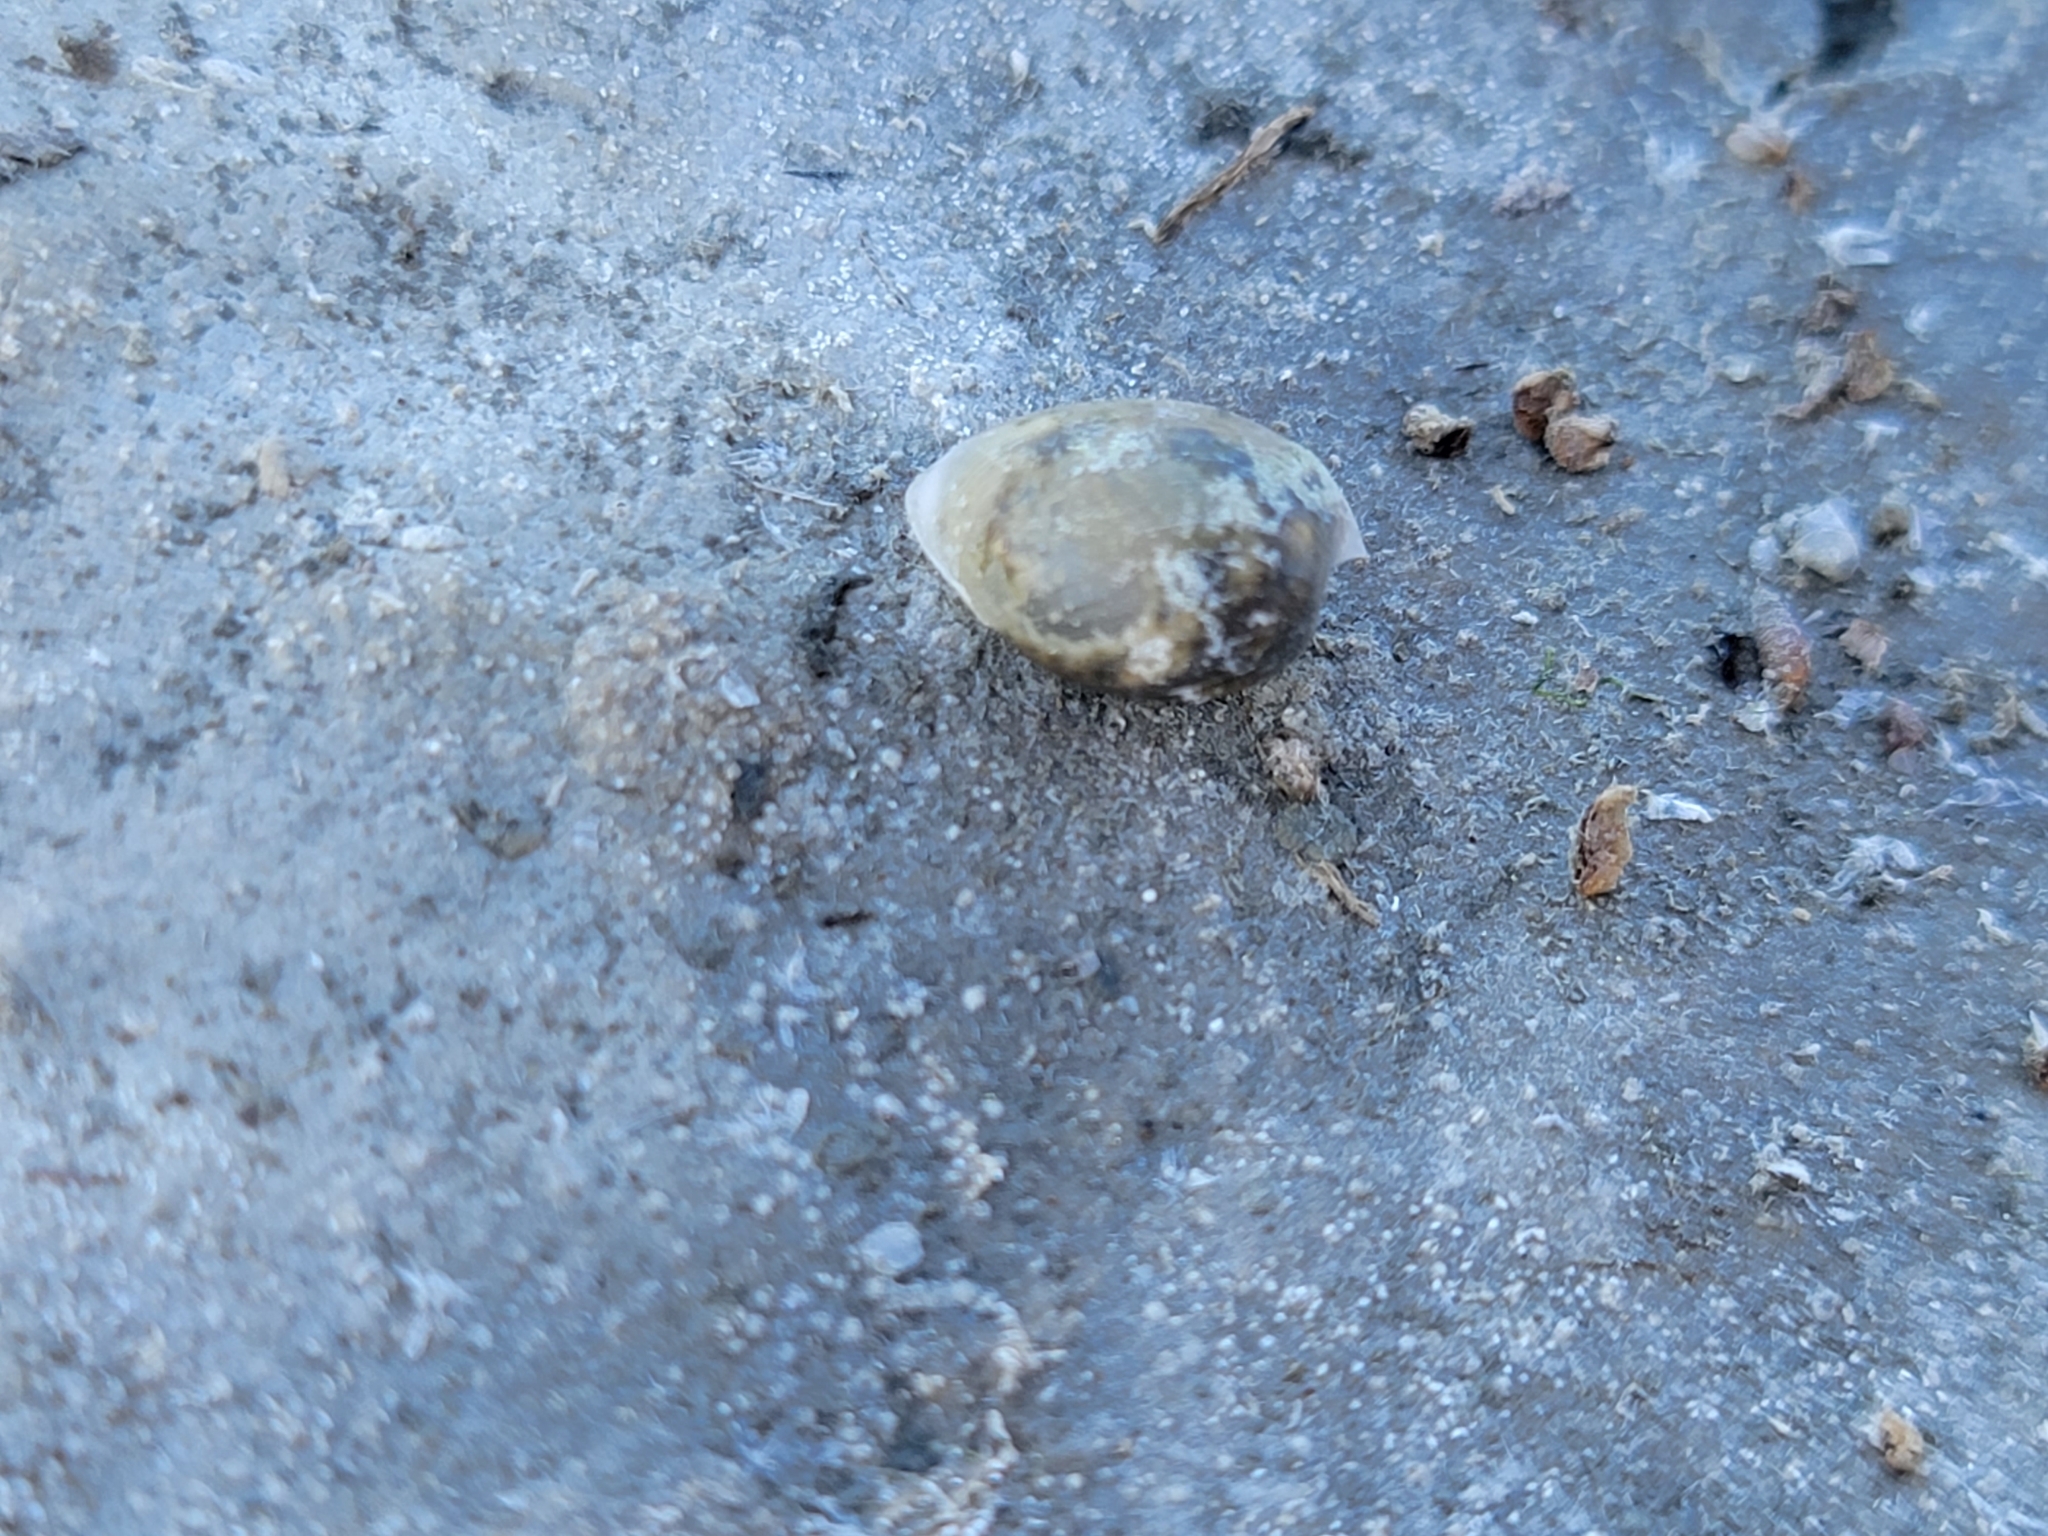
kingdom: Animalia
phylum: Mollusca
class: Gastropoda
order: Cephalaspidea
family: Haminoeidae
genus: Haloa
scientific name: Haloa japonica
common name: Japanese bubble snail
